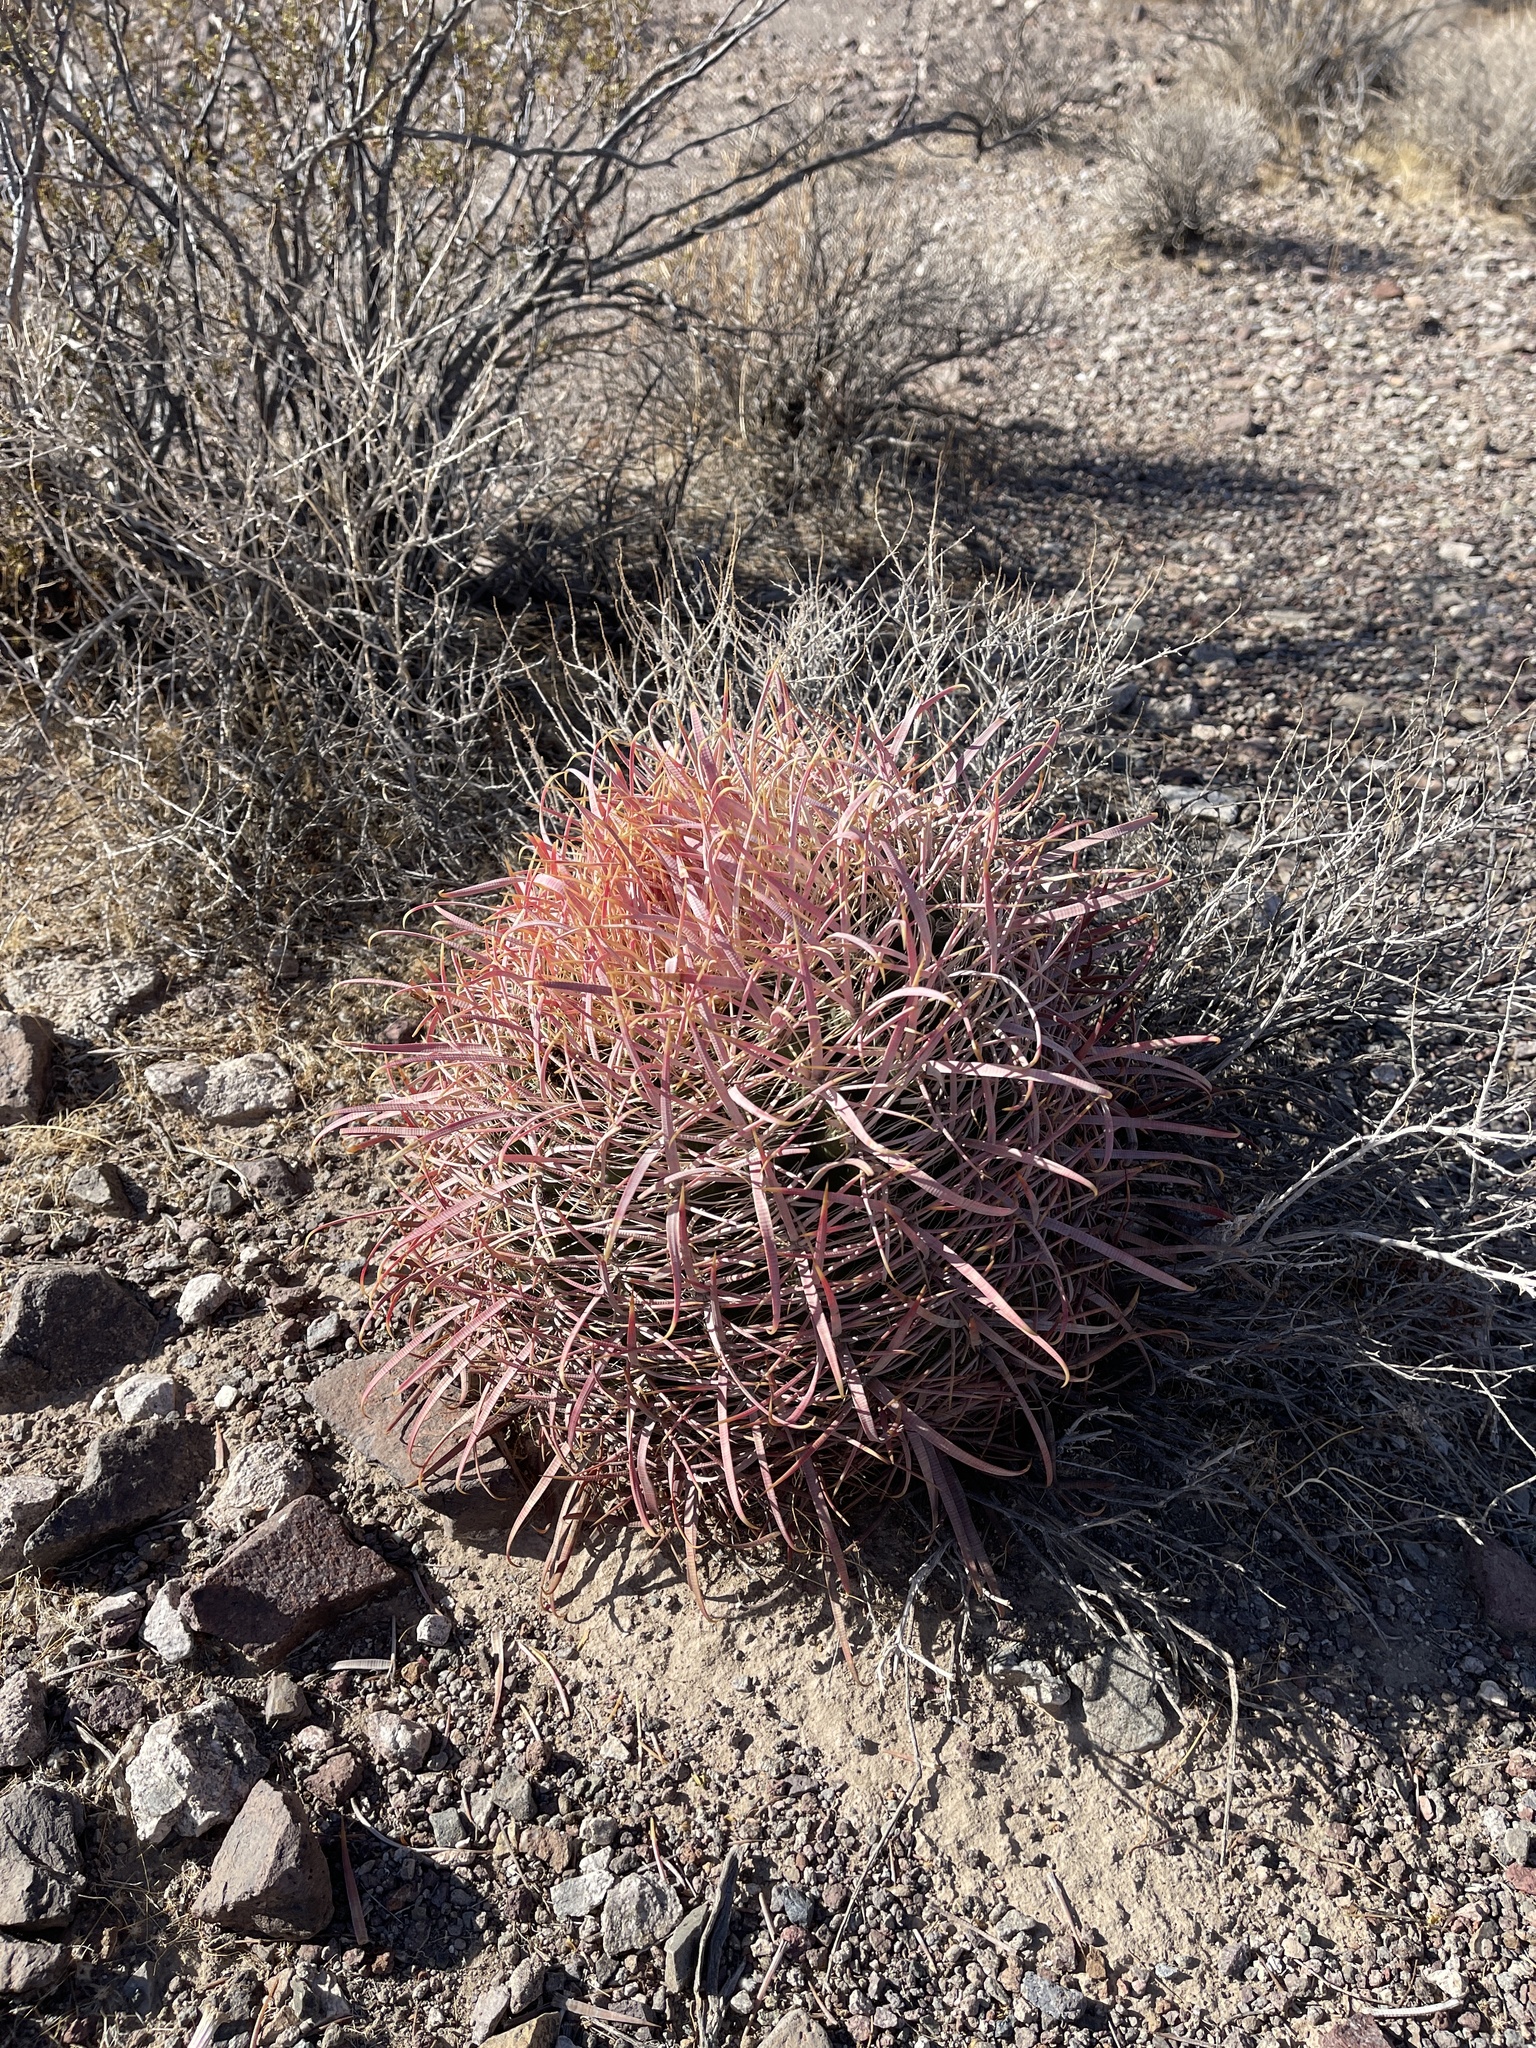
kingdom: Plantae
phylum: Tracheophyta
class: Magnoliopsida
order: Caryophyllales
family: Cactaceae
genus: Ferocactus
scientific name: Ferocactus cylindraceus
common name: California barrel cactus
